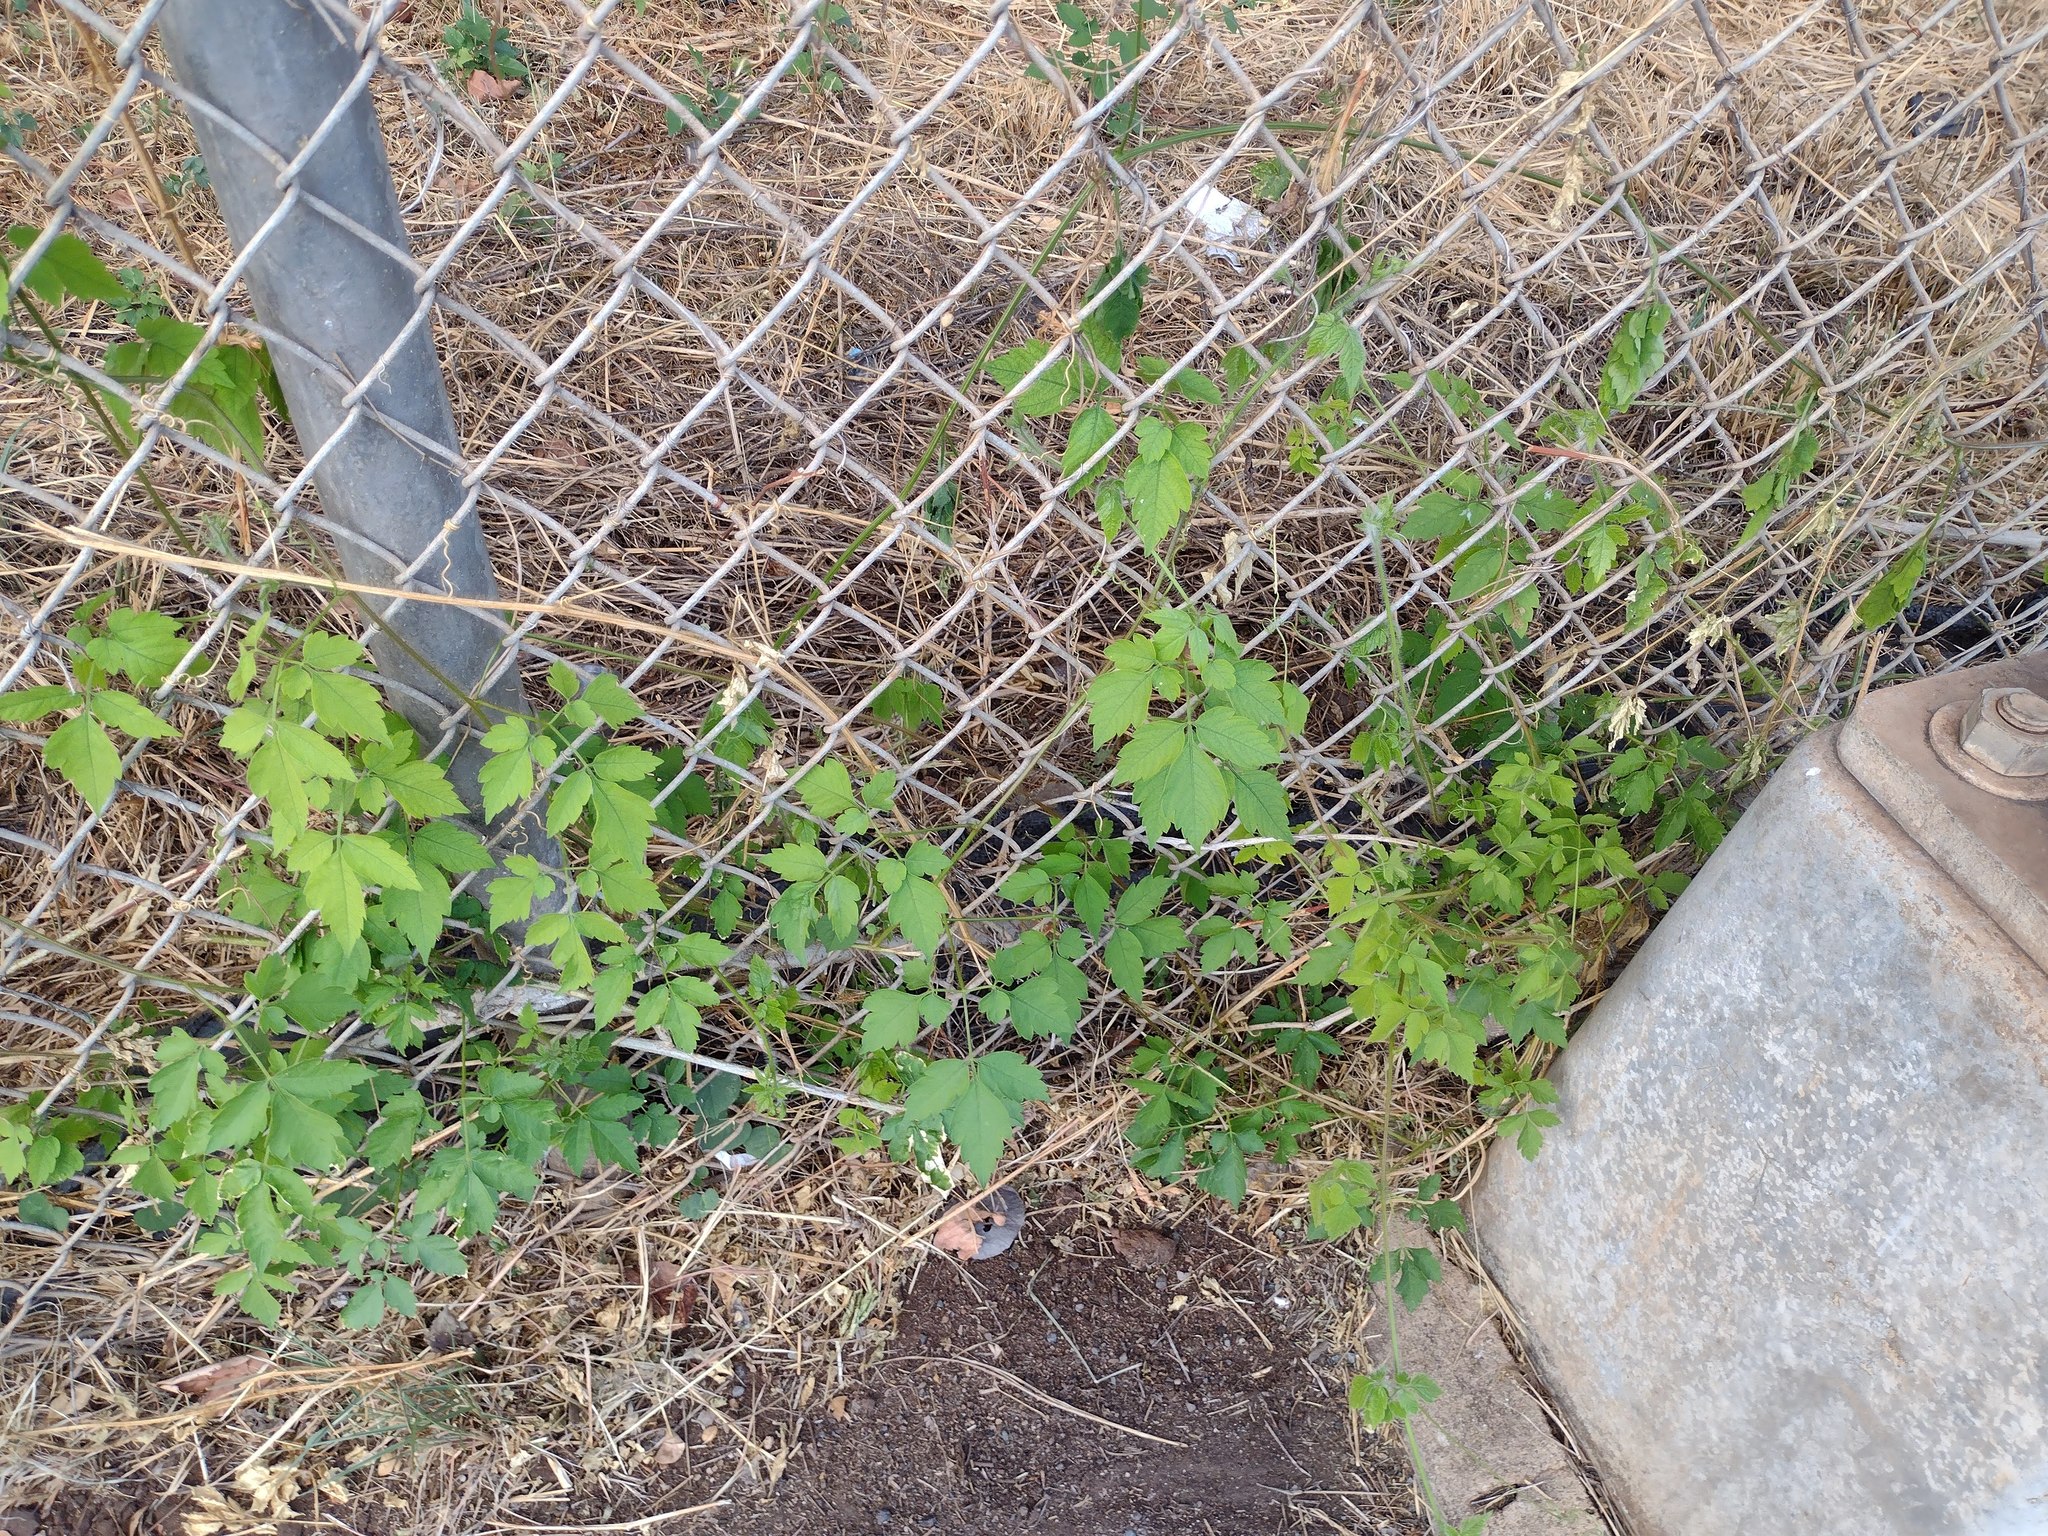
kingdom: Plantae
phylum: Tracheophyta
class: Magnoliopsida
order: Sapindales
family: Sapindaceae
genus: Cardiospermum
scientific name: Cardiospermum grandiflorum
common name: Balloon vine
